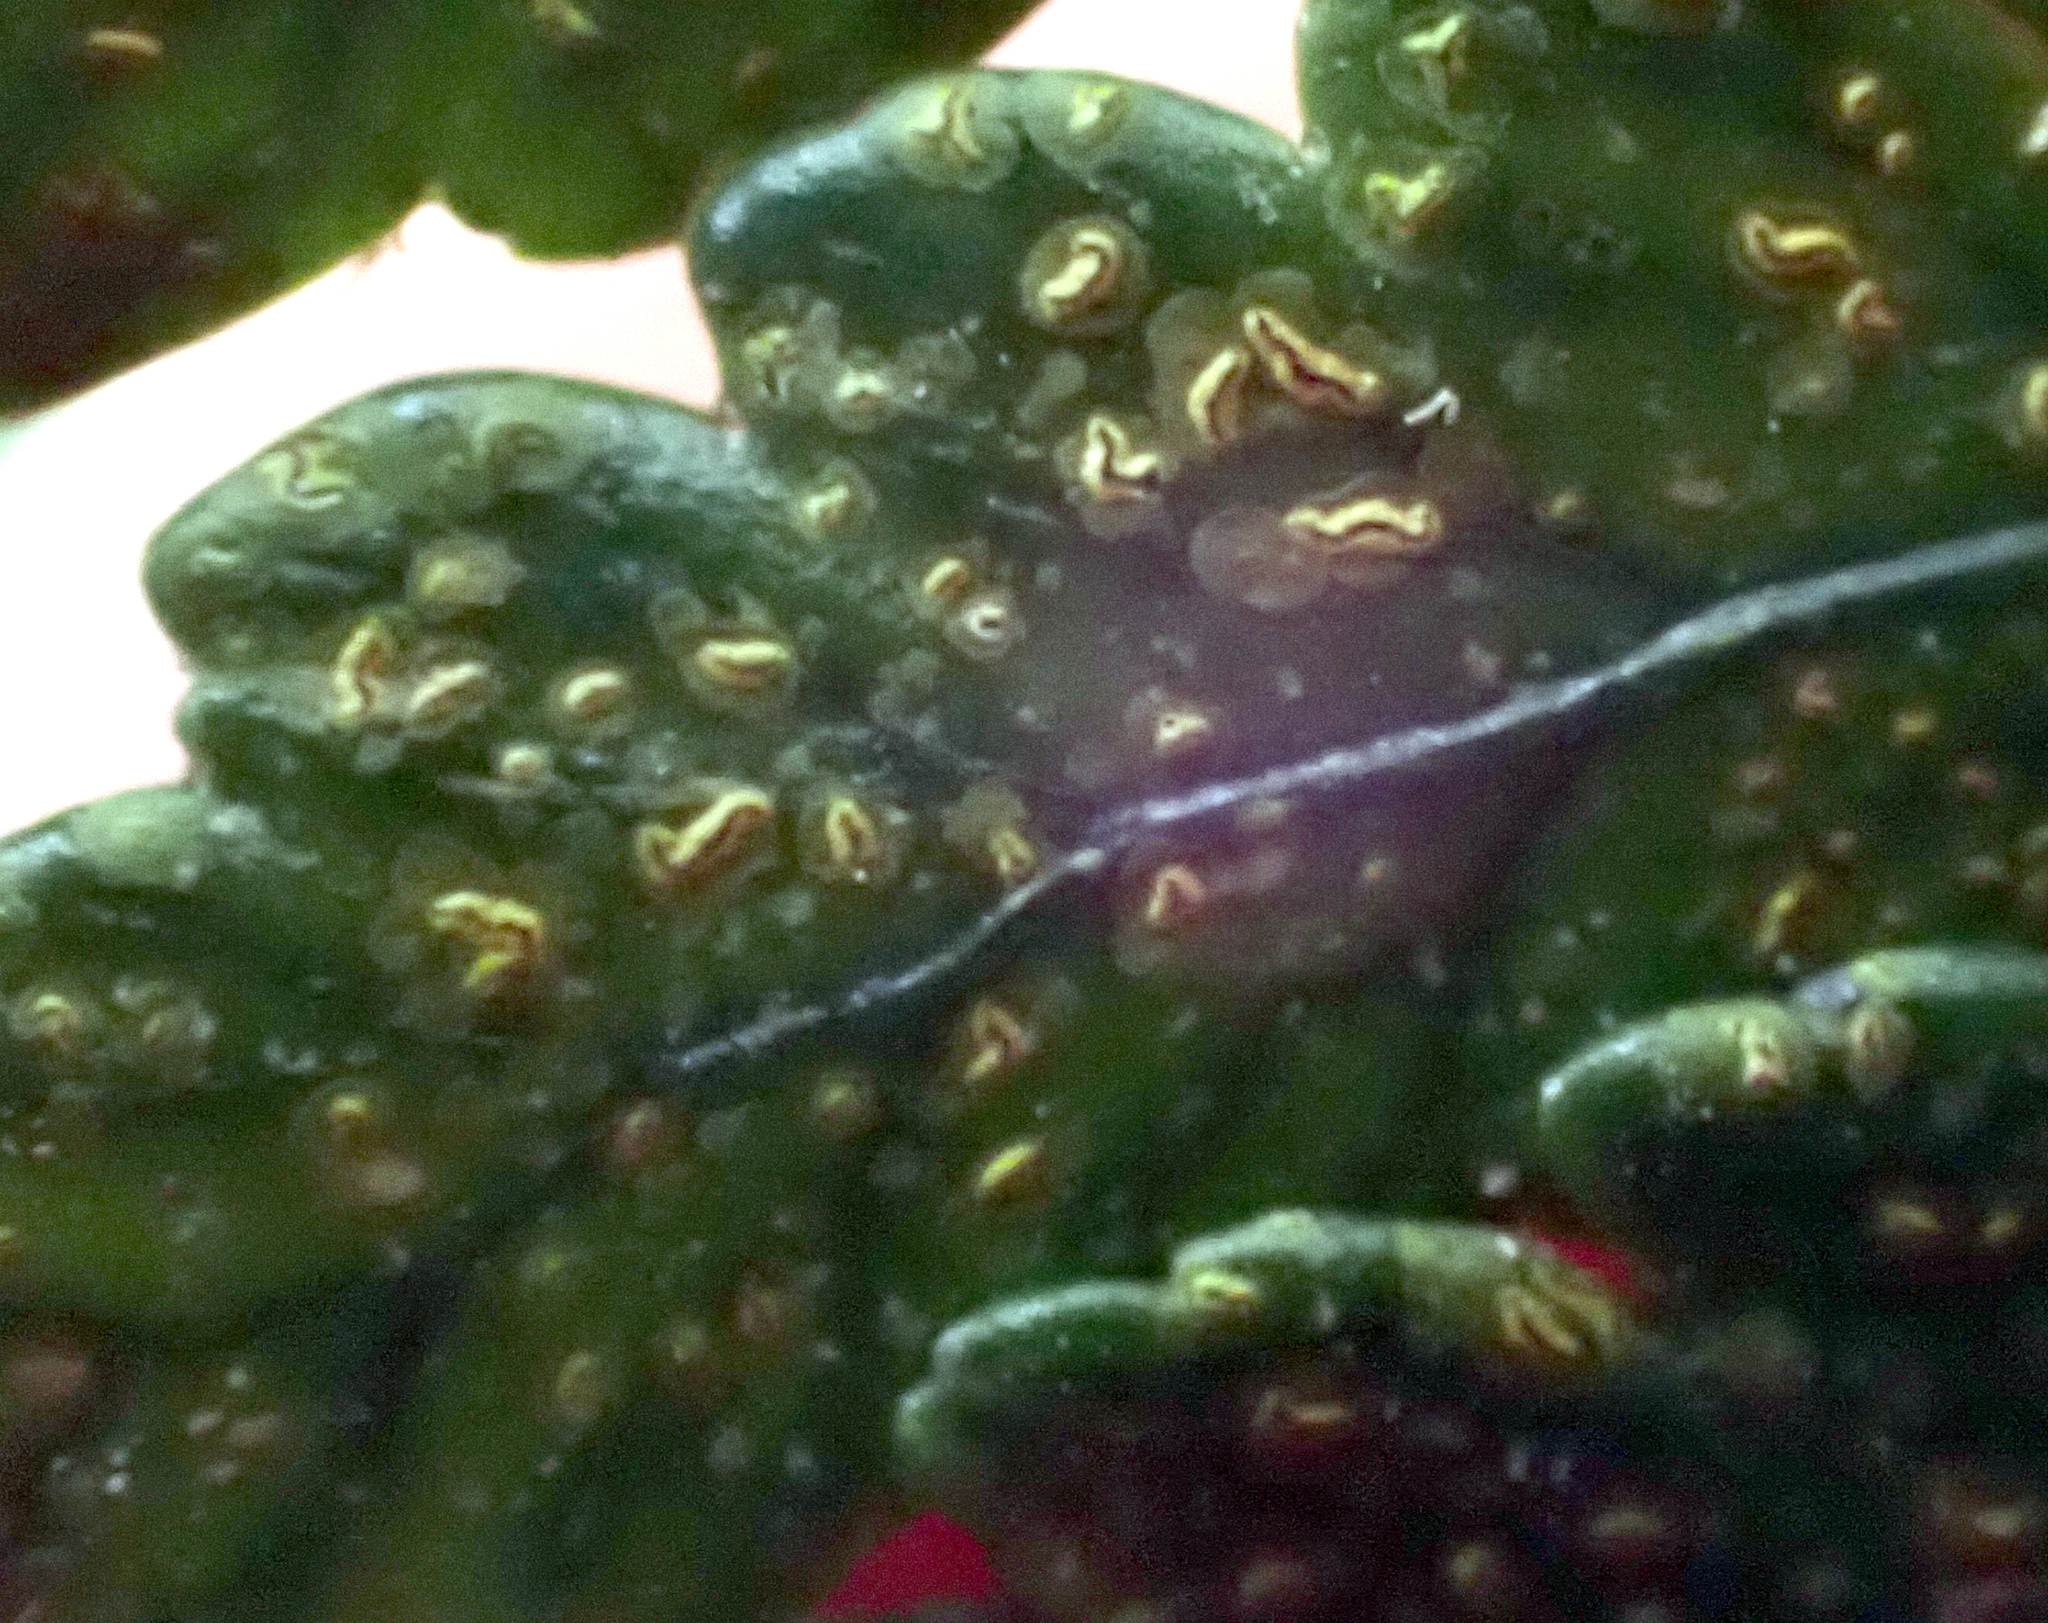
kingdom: Fungi
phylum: Ascomycota
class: Arthoniomycetes
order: Arthoniales
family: Roccellaceae
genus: Enterographa
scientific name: Enterographa bella
